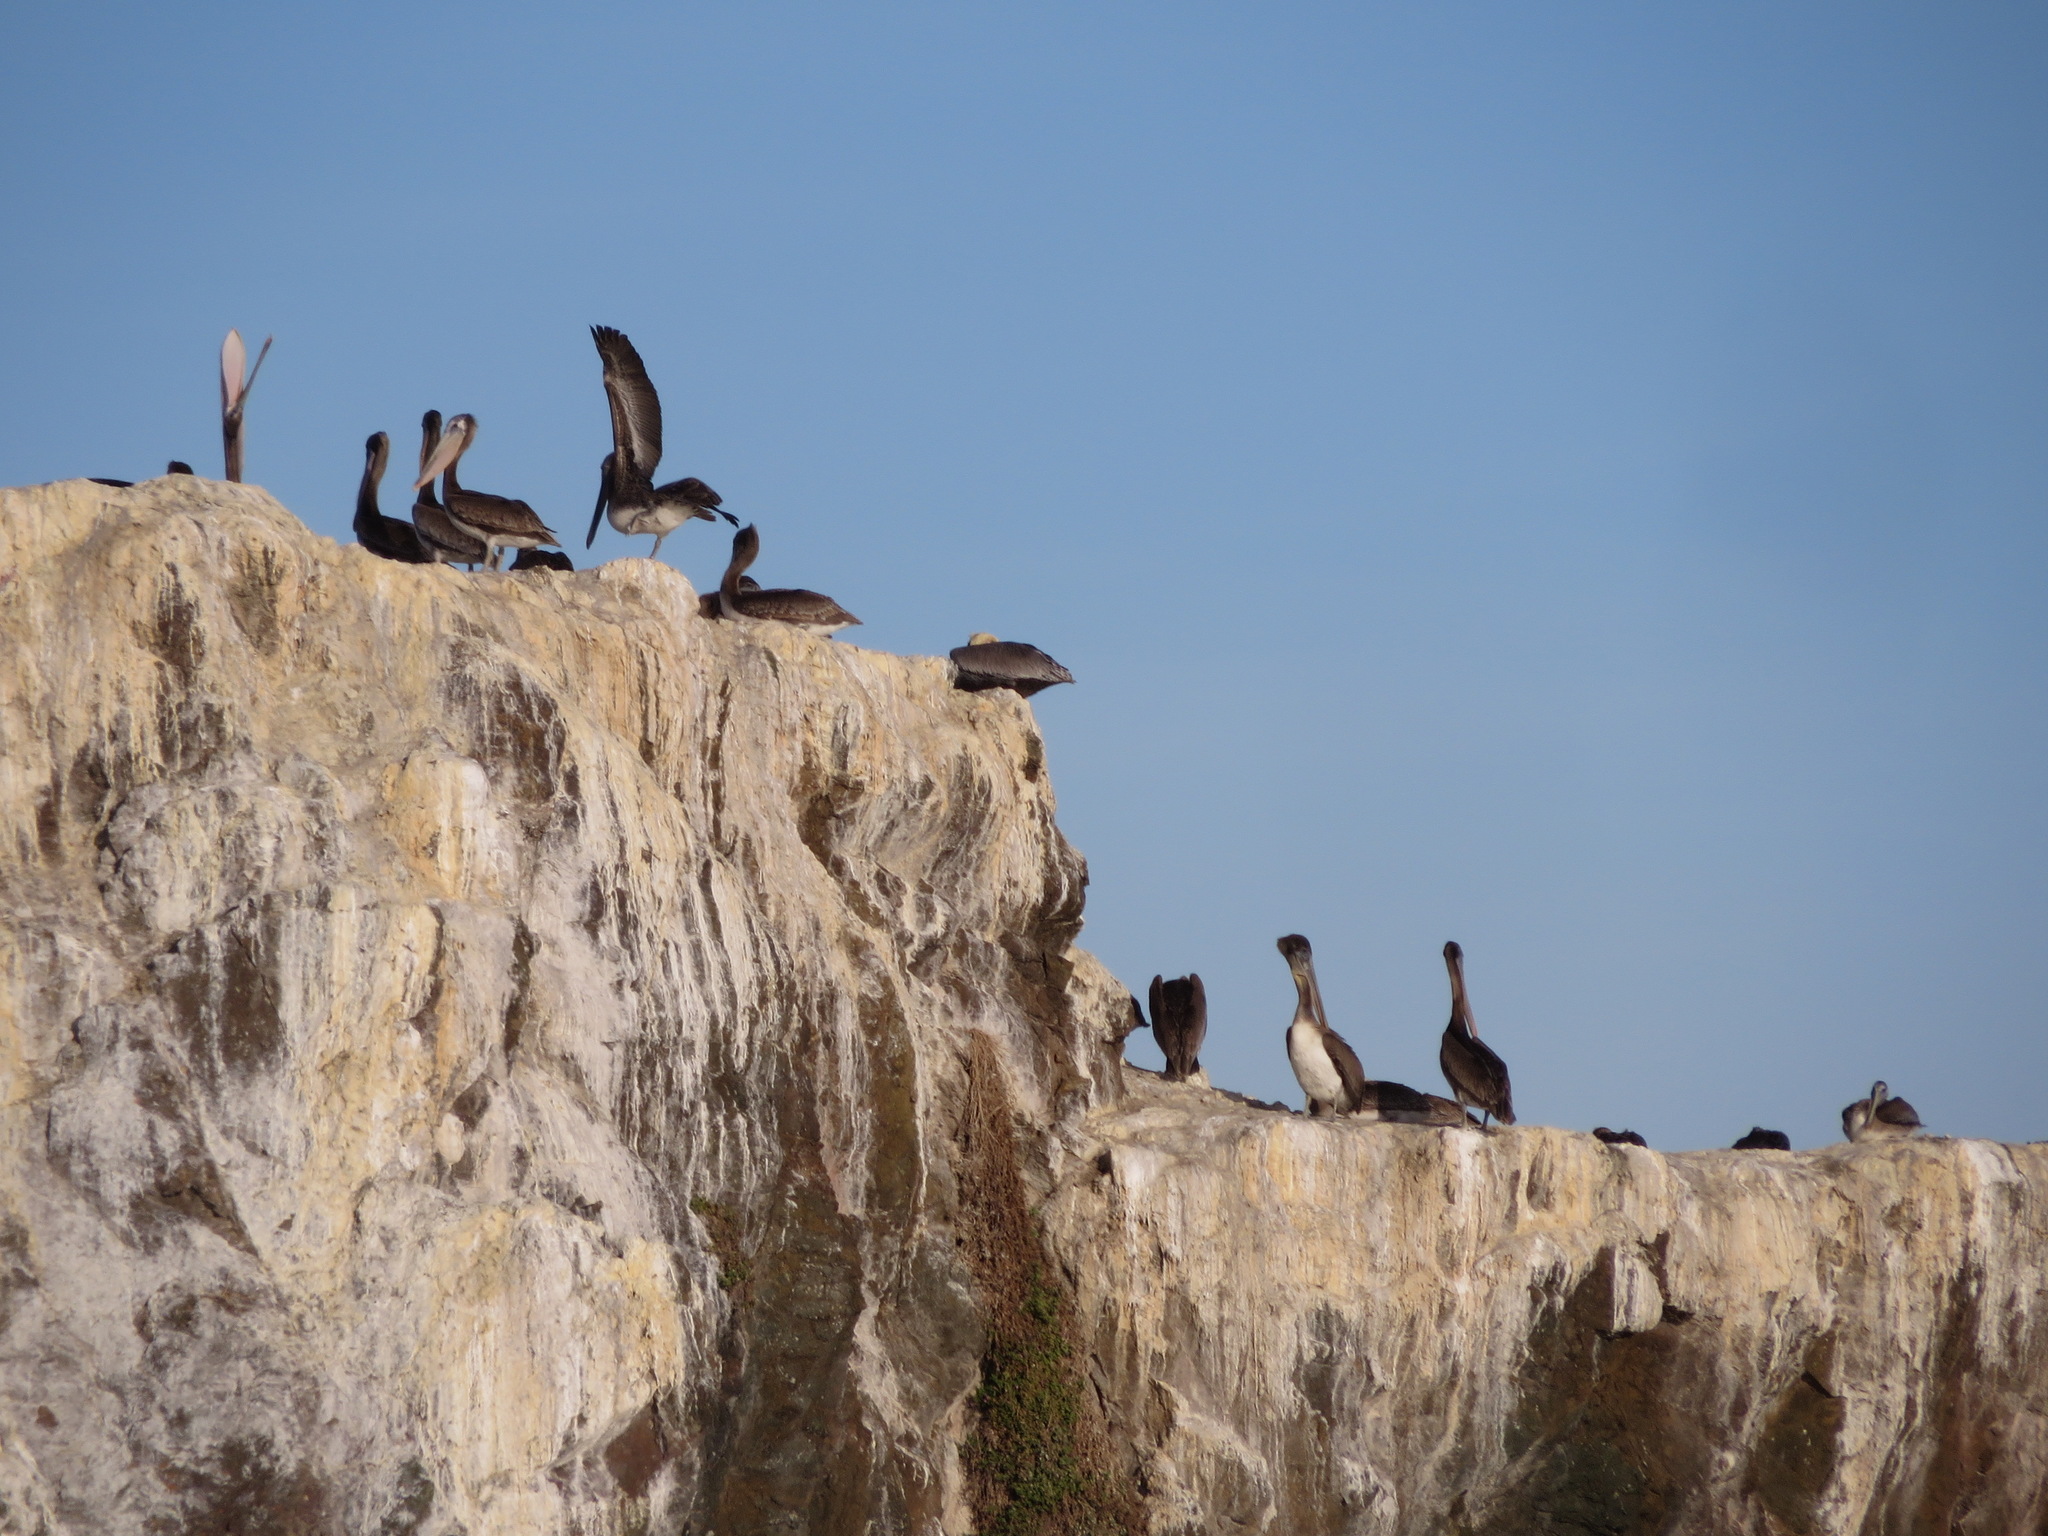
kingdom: Animalia
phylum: Chordata
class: Aves
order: Pelecaniformes
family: Pelecanidae
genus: Pelecanus
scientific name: Pelecanus occidentalis
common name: Brown pelican
